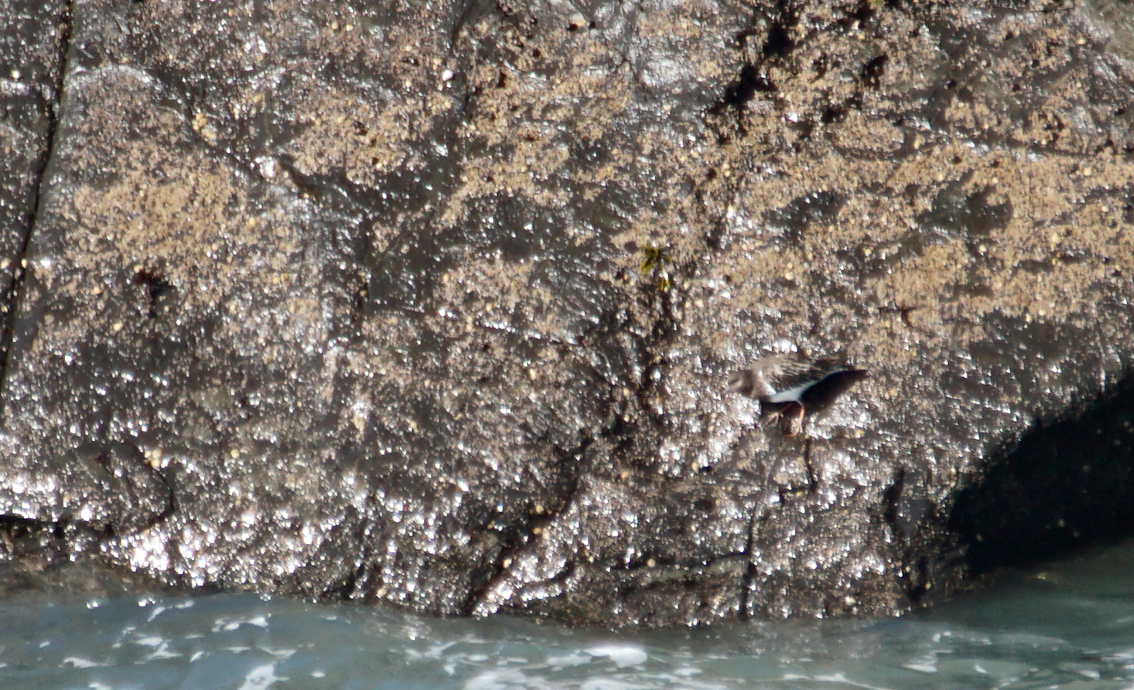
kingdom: Animalia
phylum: Chordata
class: Aves
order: Charadriiformes
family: Scolopacidae
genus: Arenaria
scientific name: Arenaria melanocephala
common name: Black turnstone
